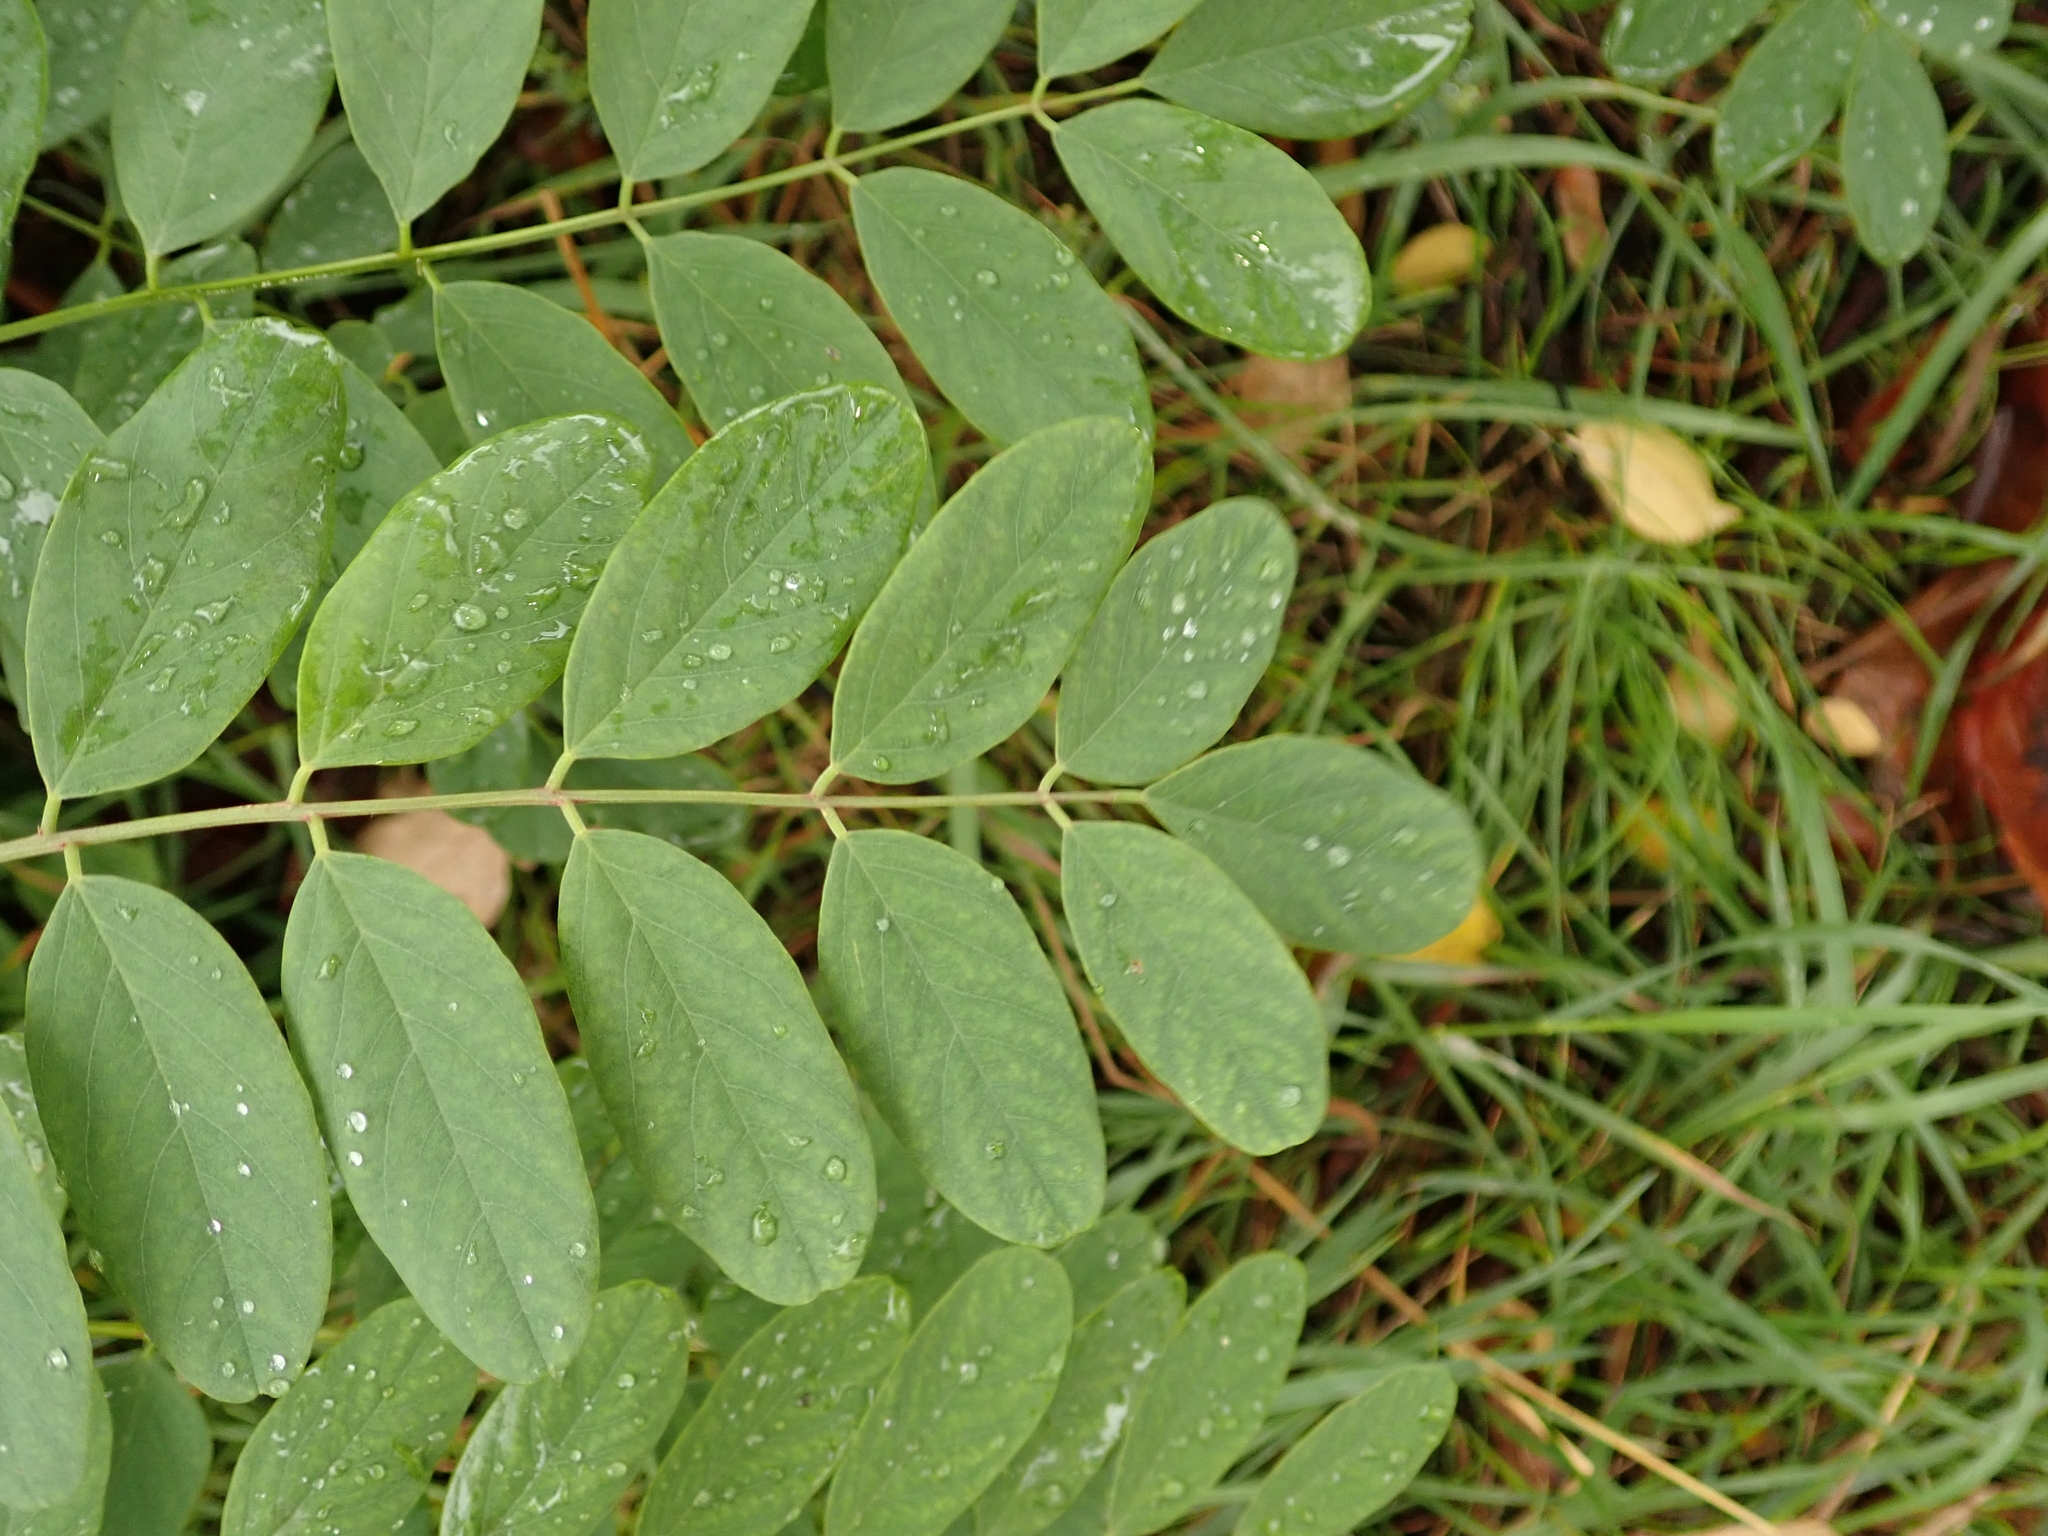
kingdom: Plantae
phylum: Tracheophyta
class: Magnoliopsida
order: Fabales
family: Fabaceae
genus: Robinia
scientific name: Robinia pseudoacacia
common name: Black locust
